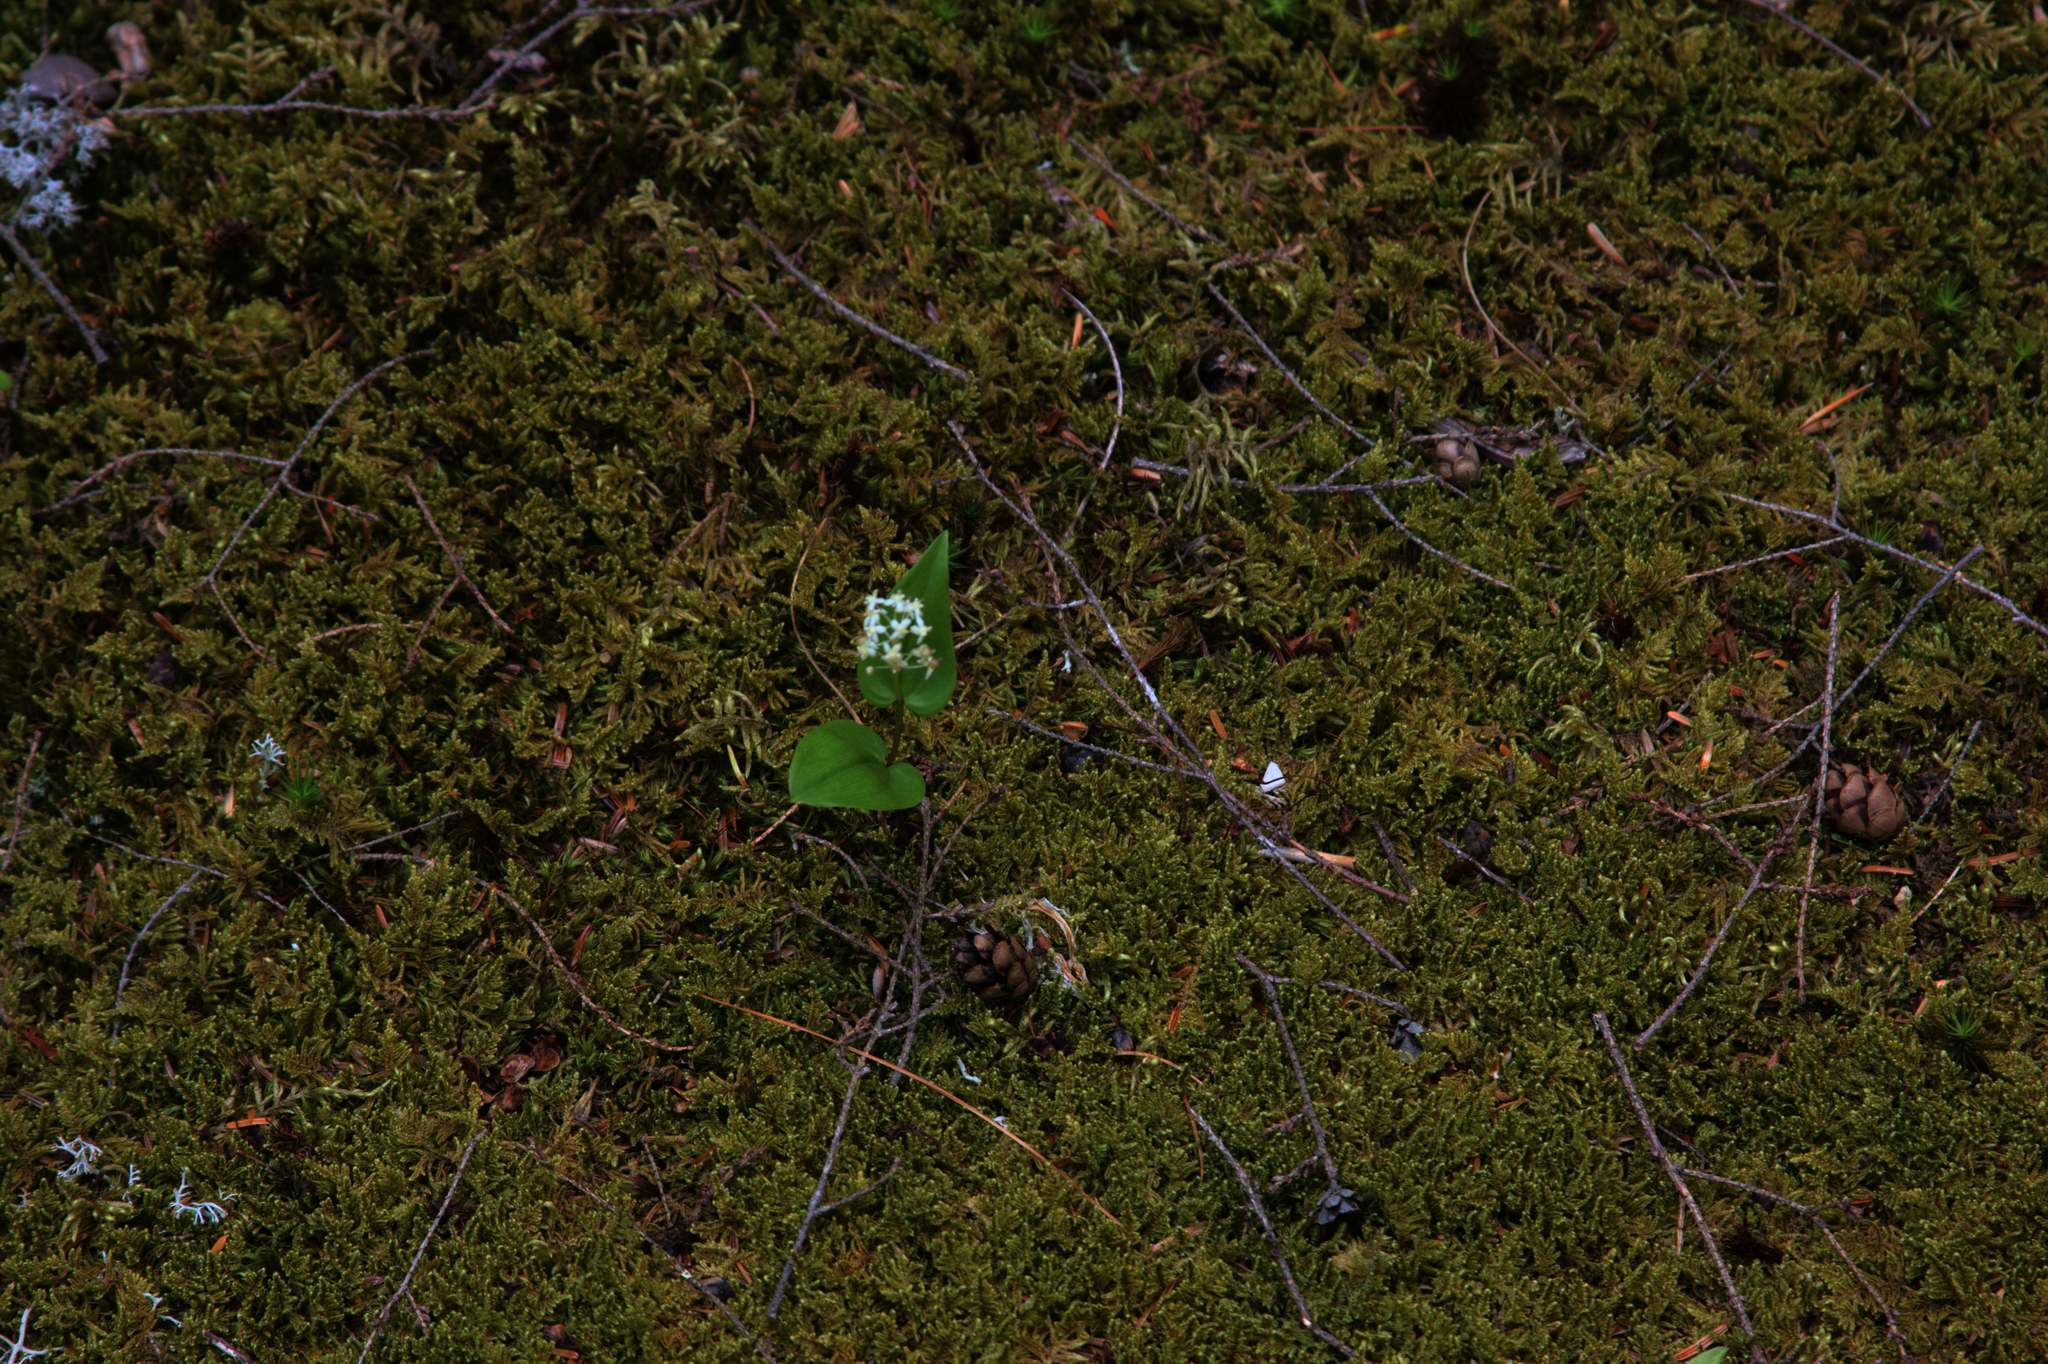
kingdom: Plantae
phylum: Tracheophyta
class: Liliopsida
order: Asparagales
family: Asparagaceae
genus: Maianthemum
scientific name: Maianthemum canadense
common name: False lily-of-the-valley
